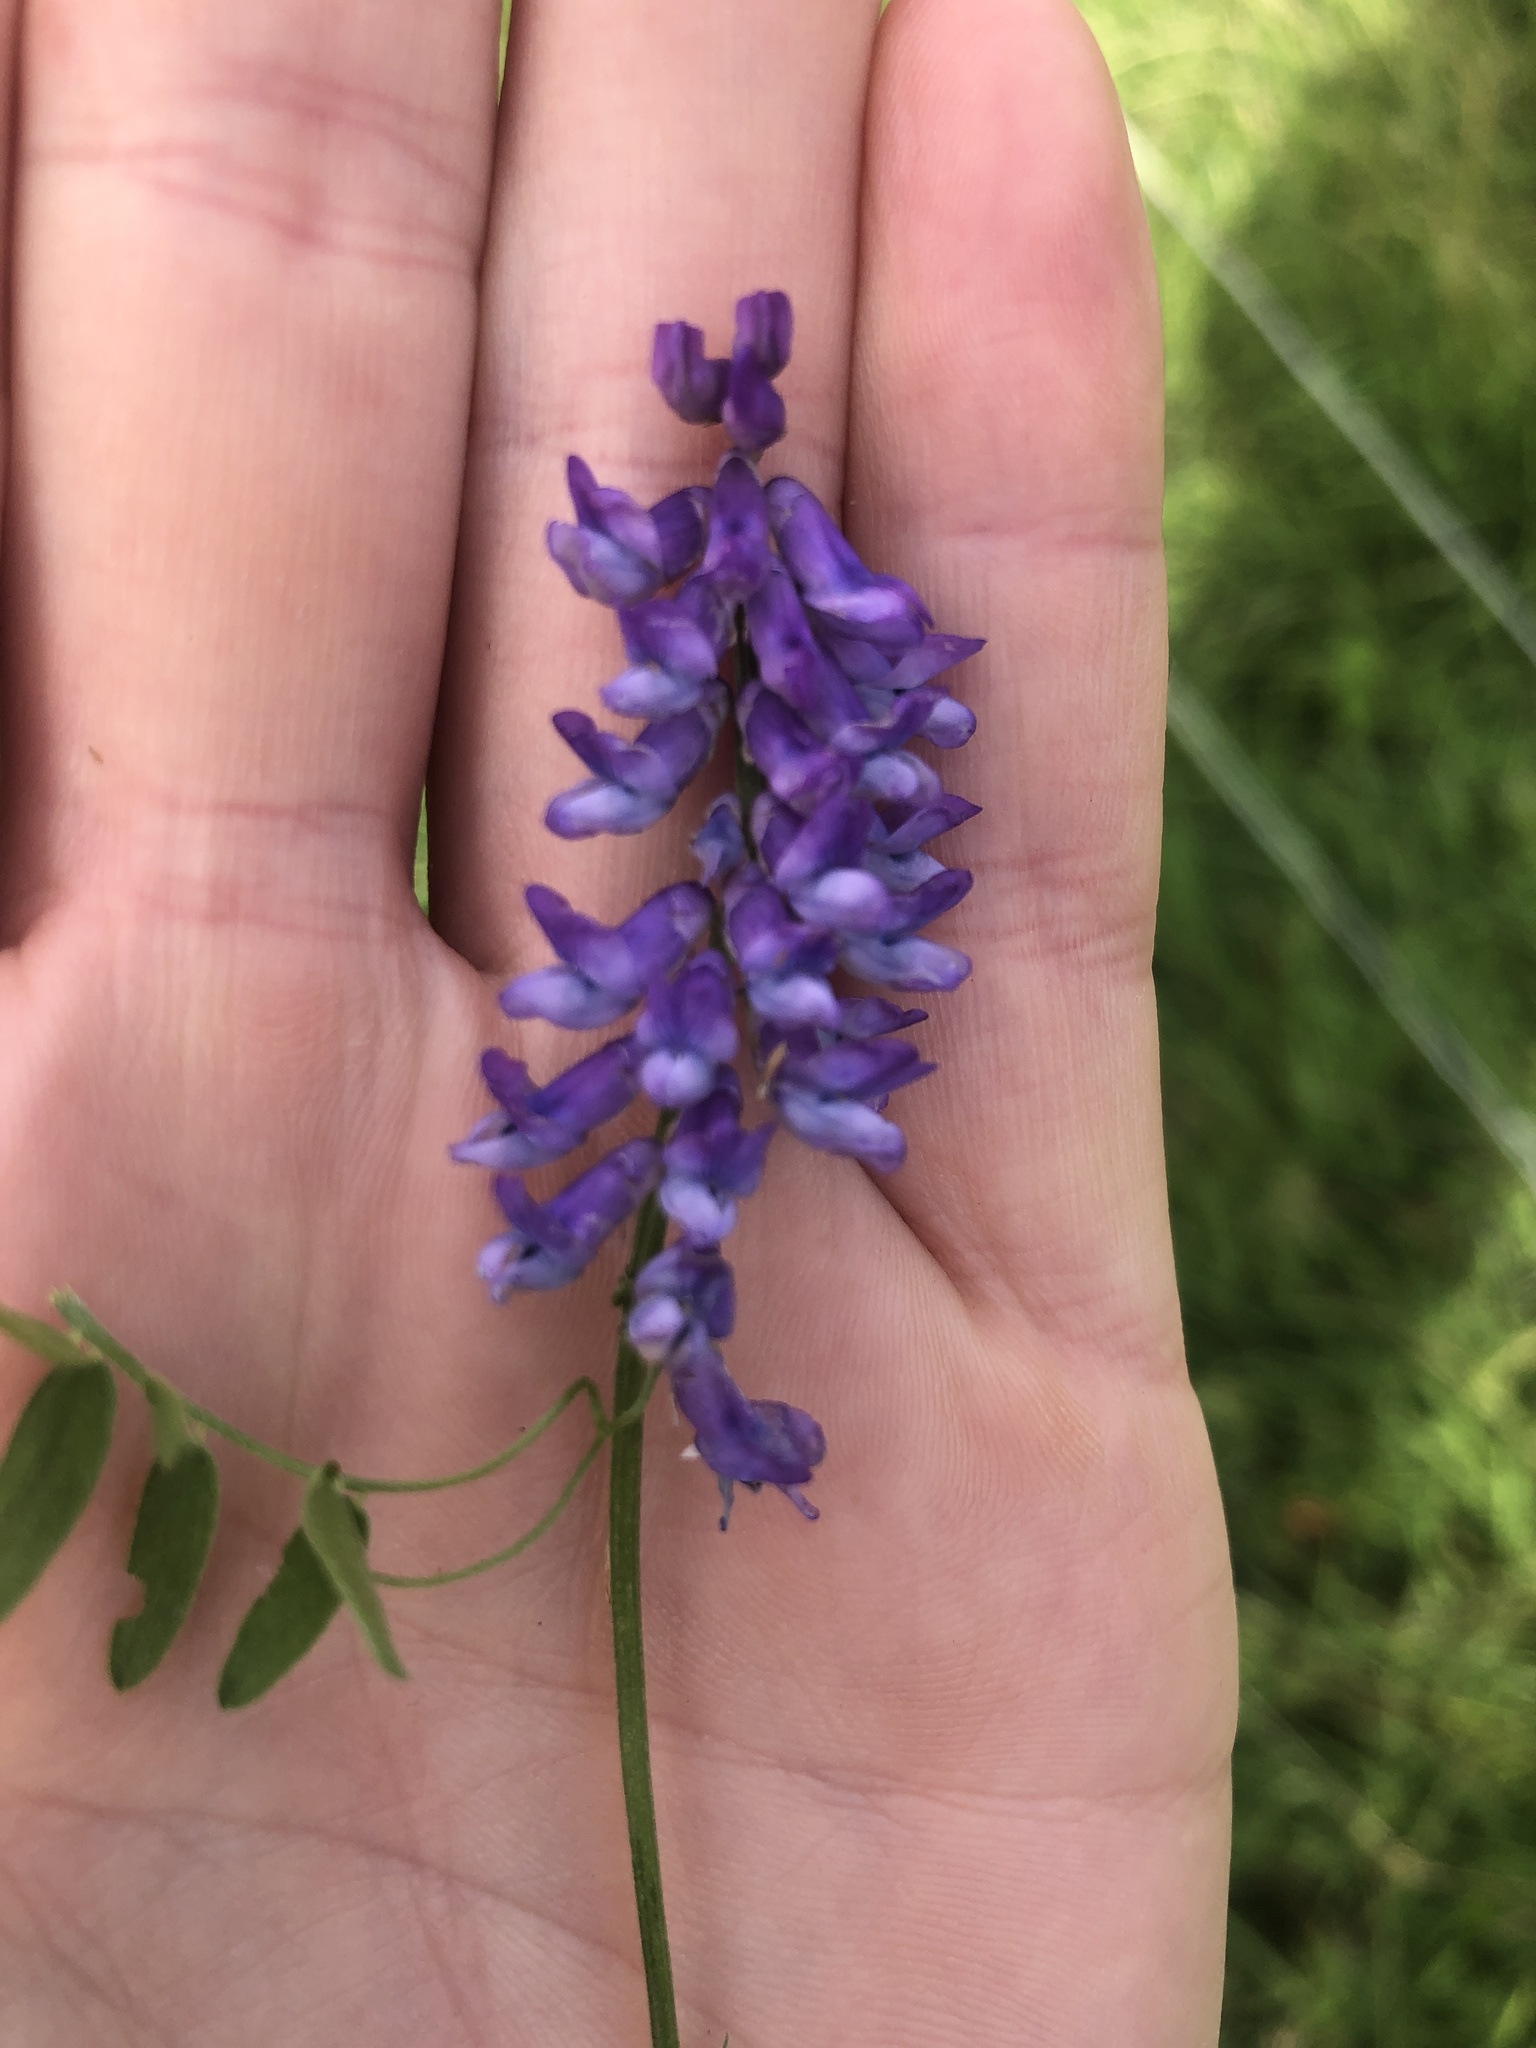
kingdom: Plantae
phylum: Tracheophyta
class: Magnoliopsida
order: Fabales
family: Fabaceae
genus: Vicia
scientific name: Vicia cracca
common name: Bird vetch
